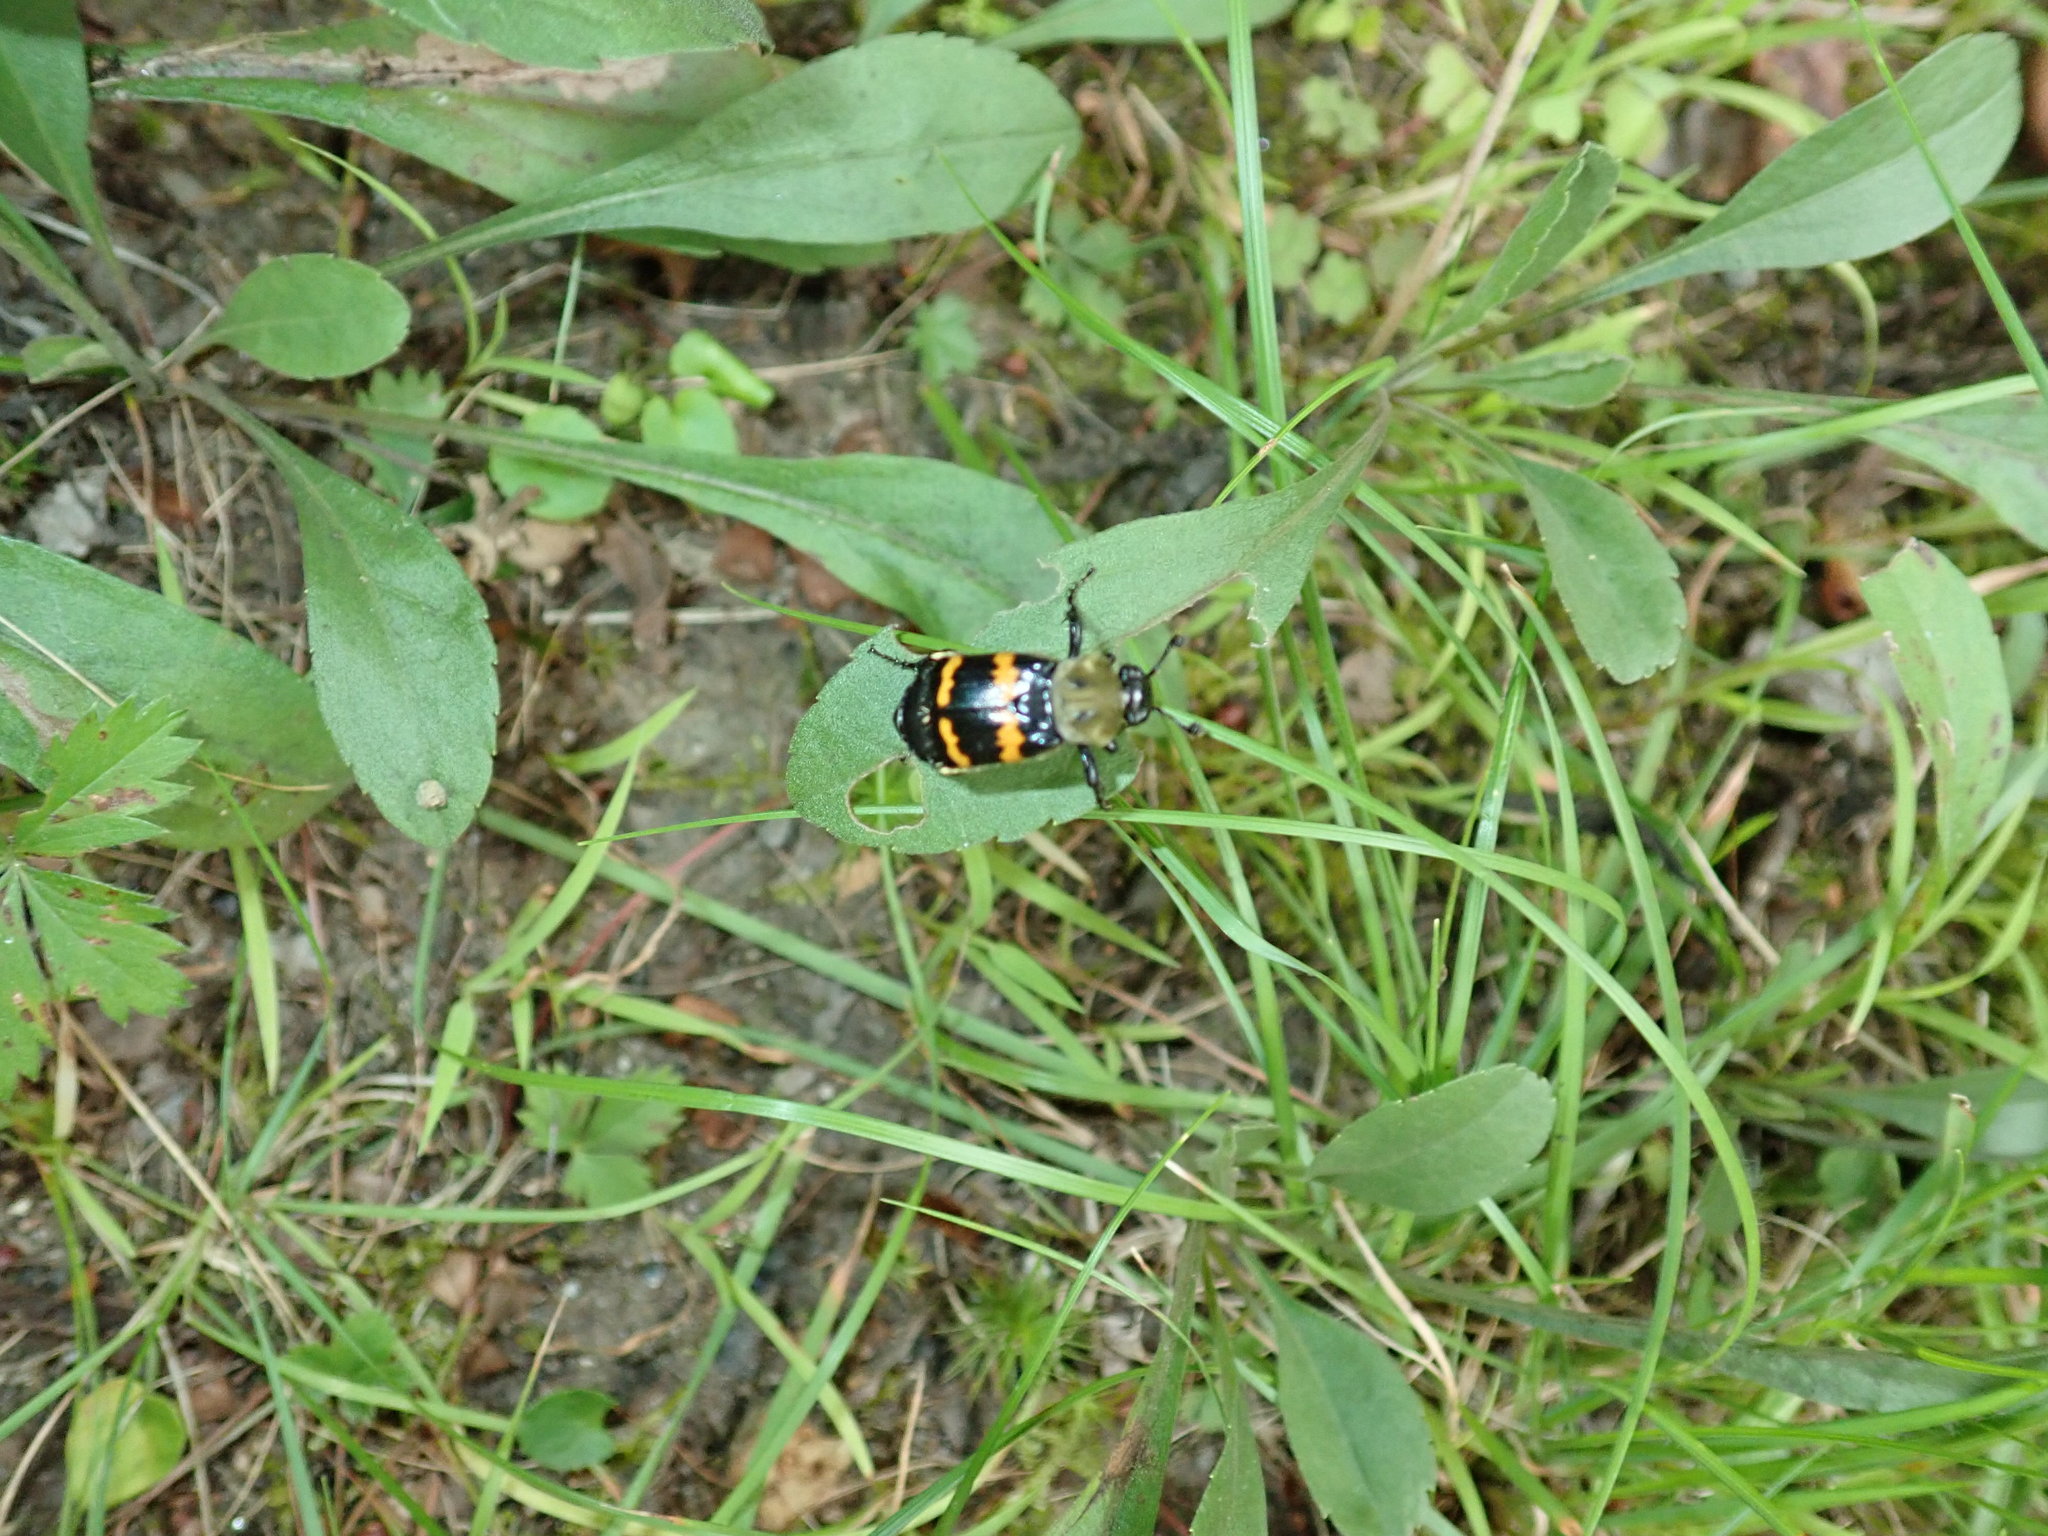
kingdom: Animalia
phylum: Arthropoda
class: Insecta
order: Coleoptera
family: Staphylinidae
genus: Nicrophorus
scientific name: Nicrophorus tomentosus
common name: Tomentose burying beetle
